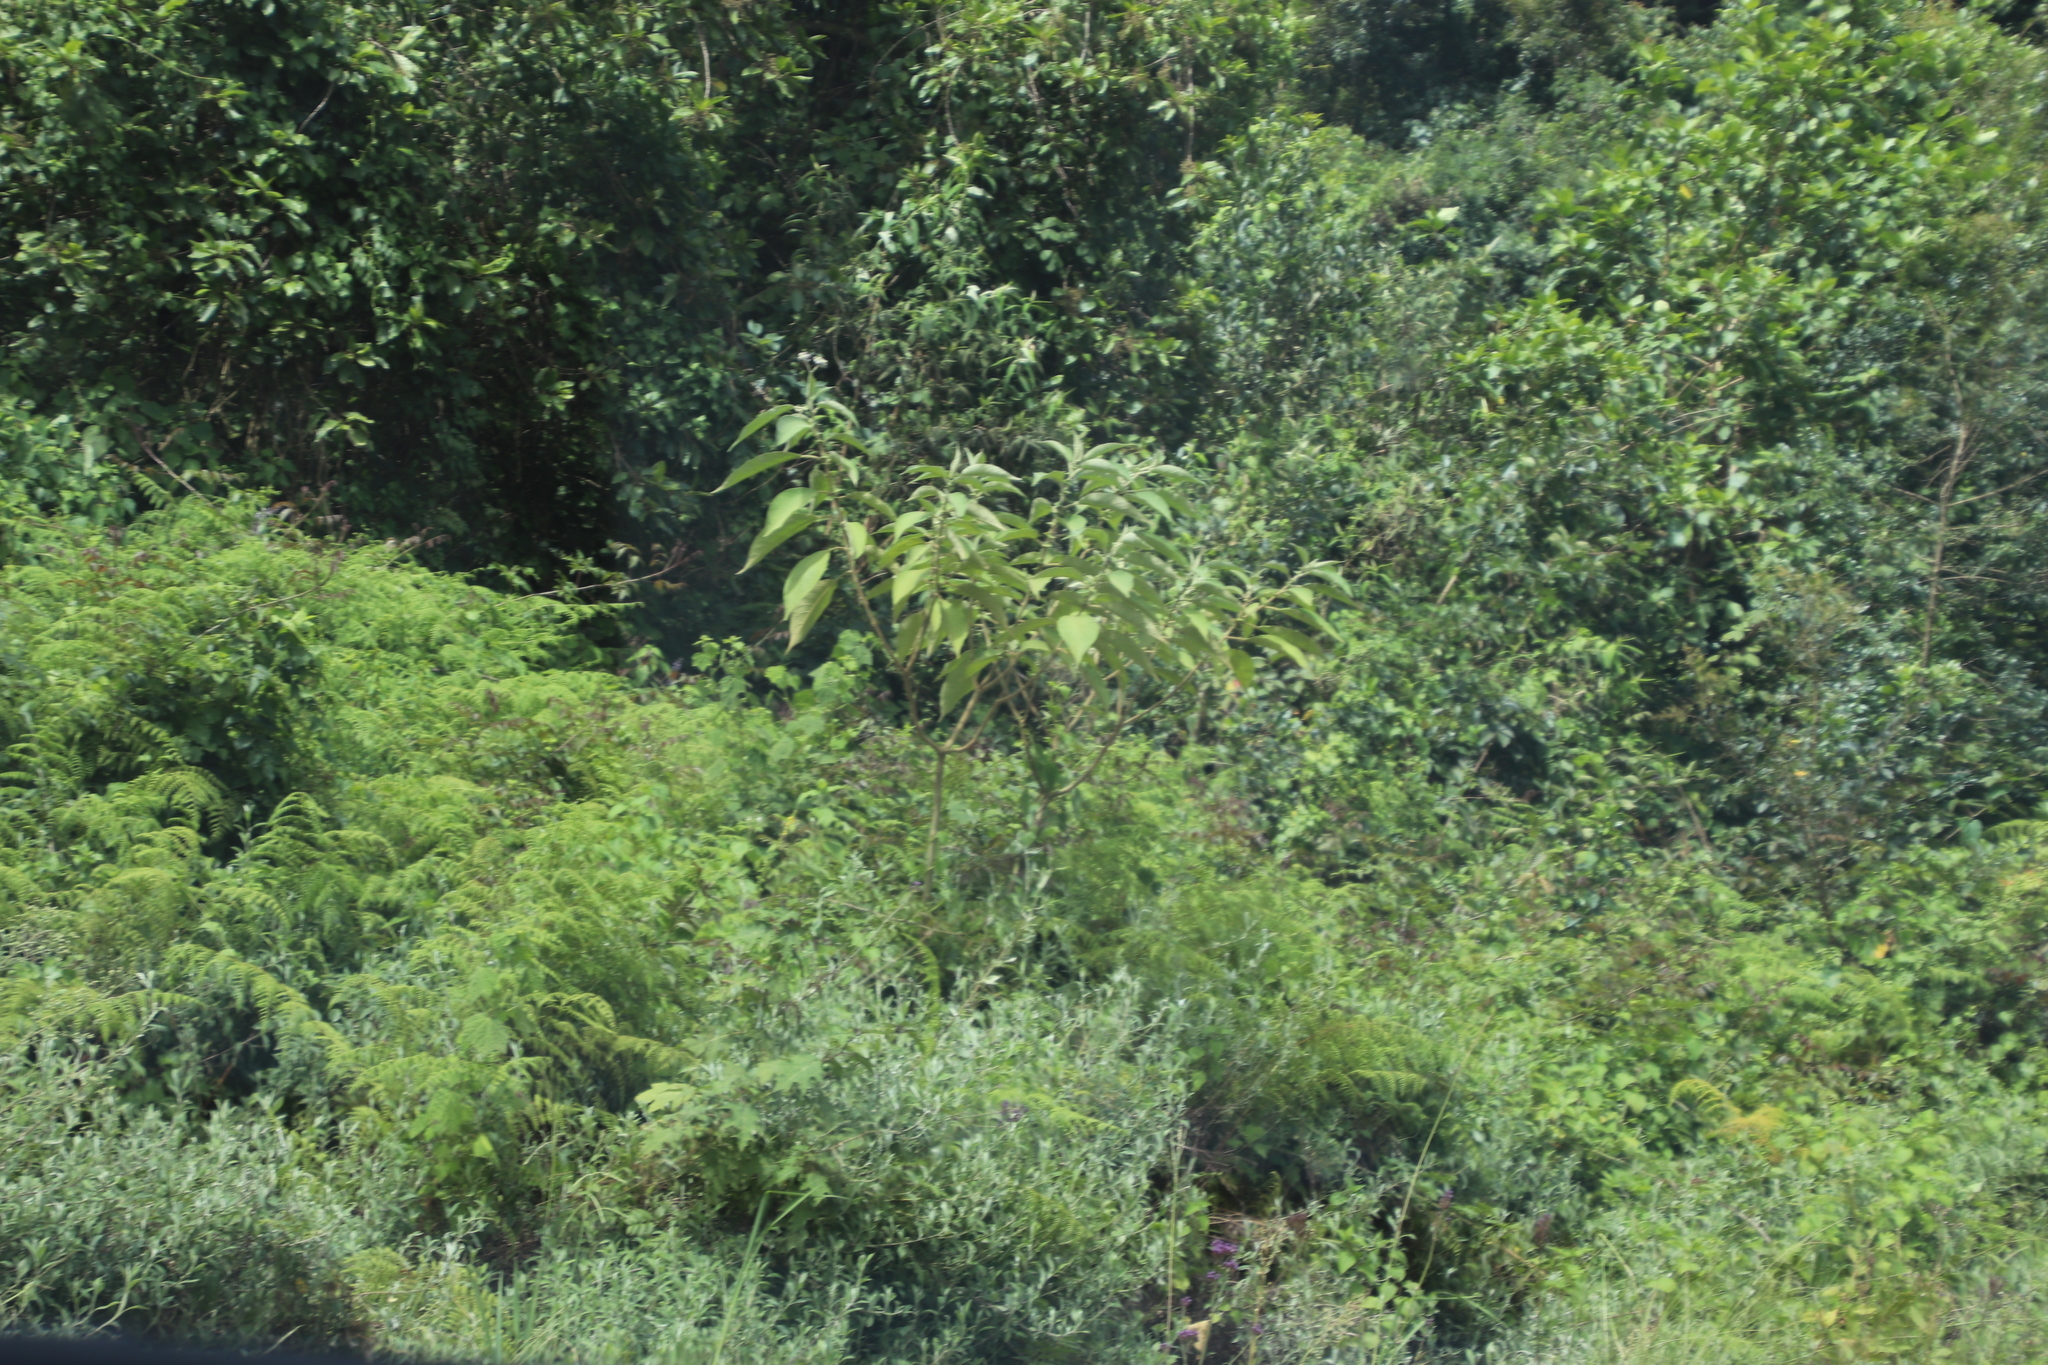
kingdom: Plantae
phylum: Tracheophyta
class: Magnoliopsida
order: Solanales
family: Solanaceae
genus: Solanum
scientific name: Solanum mauritianum
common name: Earleaf nightshade
